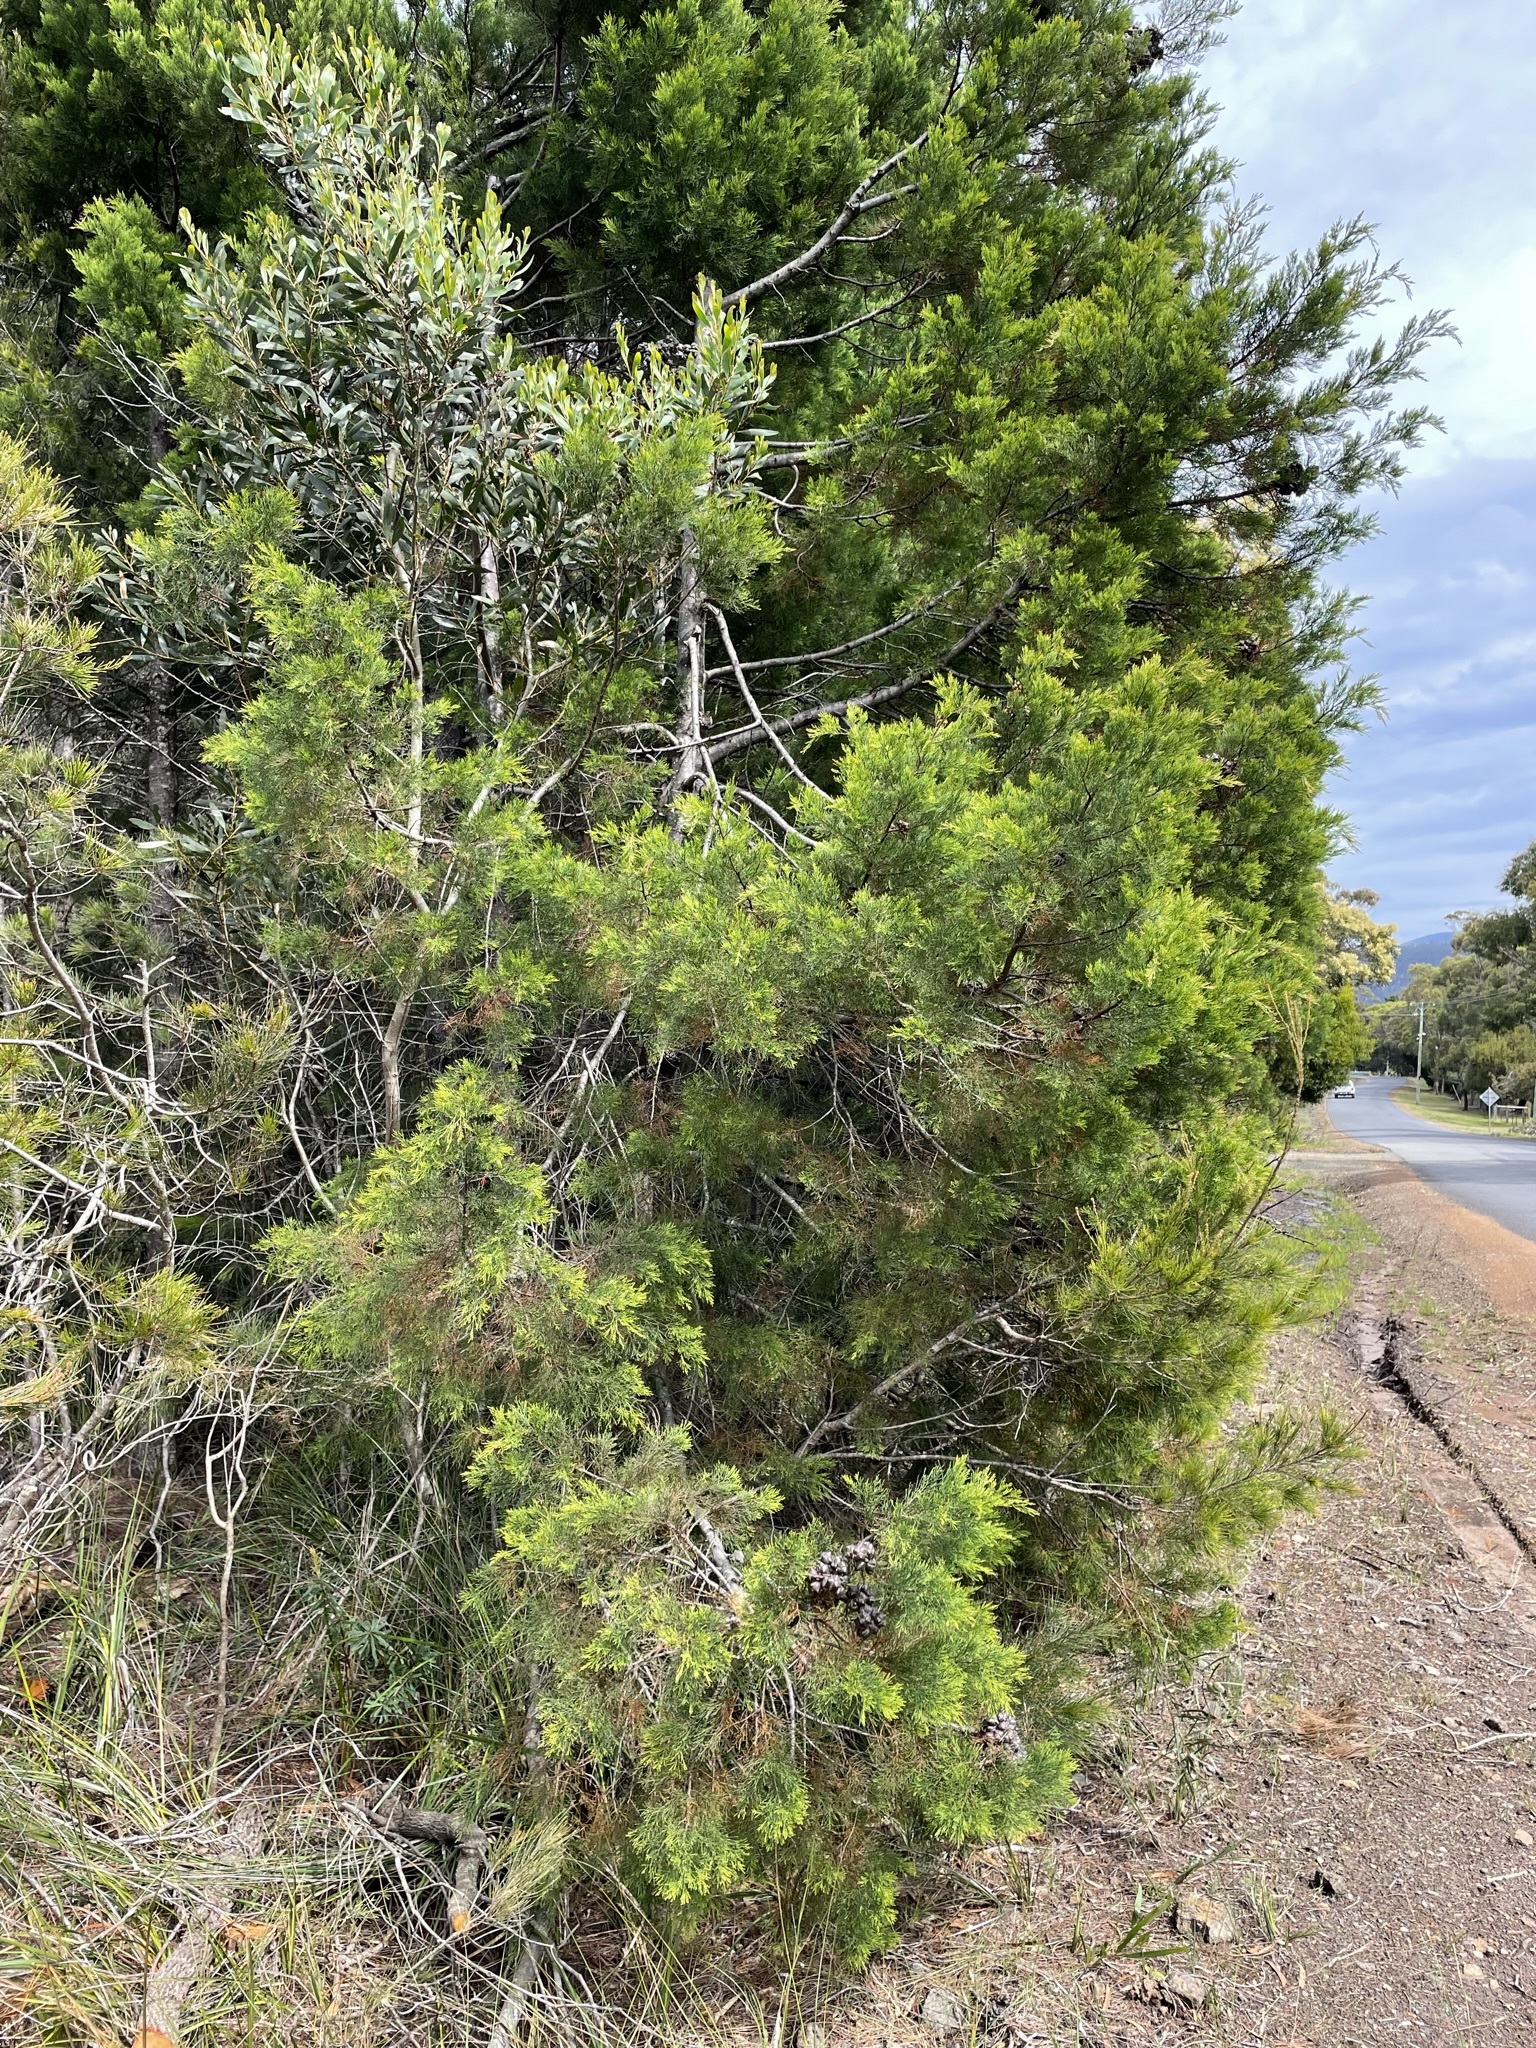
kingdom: Plantae
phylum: Tracheophyta
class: Pinopsida
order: Pinales
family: Cupressaceae
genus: Callitris
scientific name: Callitris rhomboidea
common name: Illawara mountain pine
